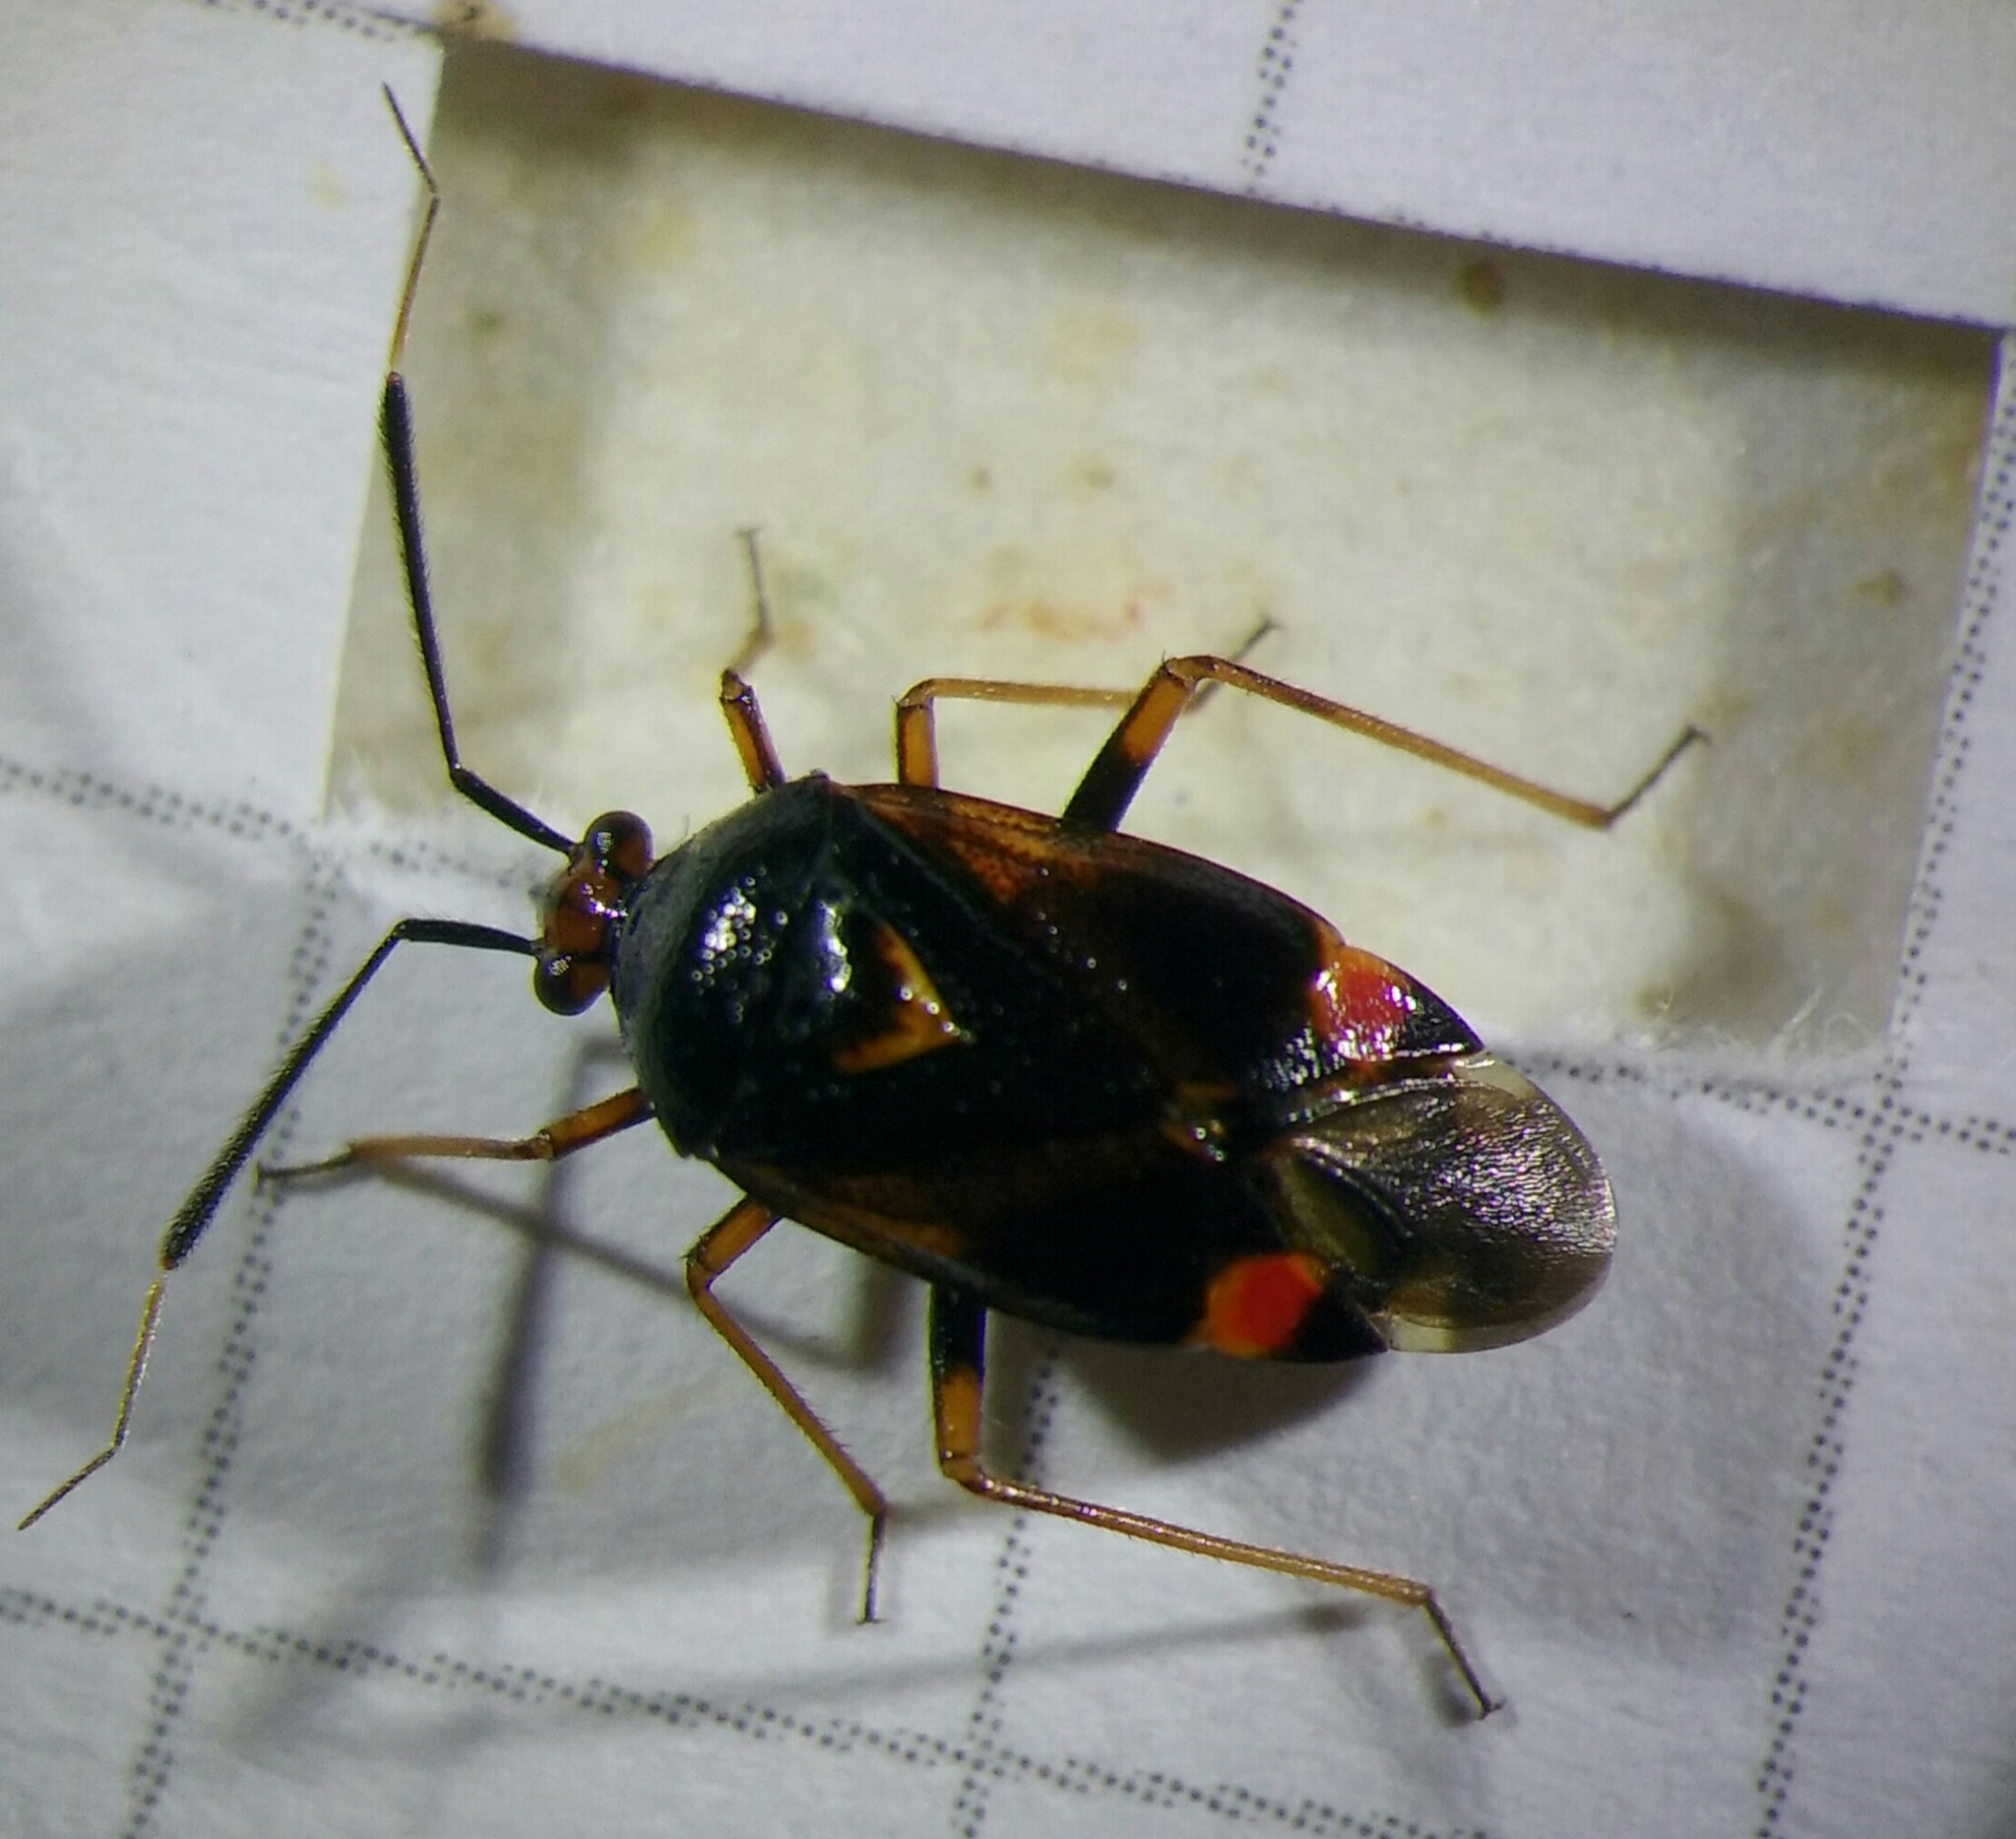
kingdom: Animalia
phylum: Arthropoda
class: Insecta
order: Hemiptera
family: Miridae
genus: Deraeocoris
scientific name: Deraeocoris ruber
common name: Plant bug
